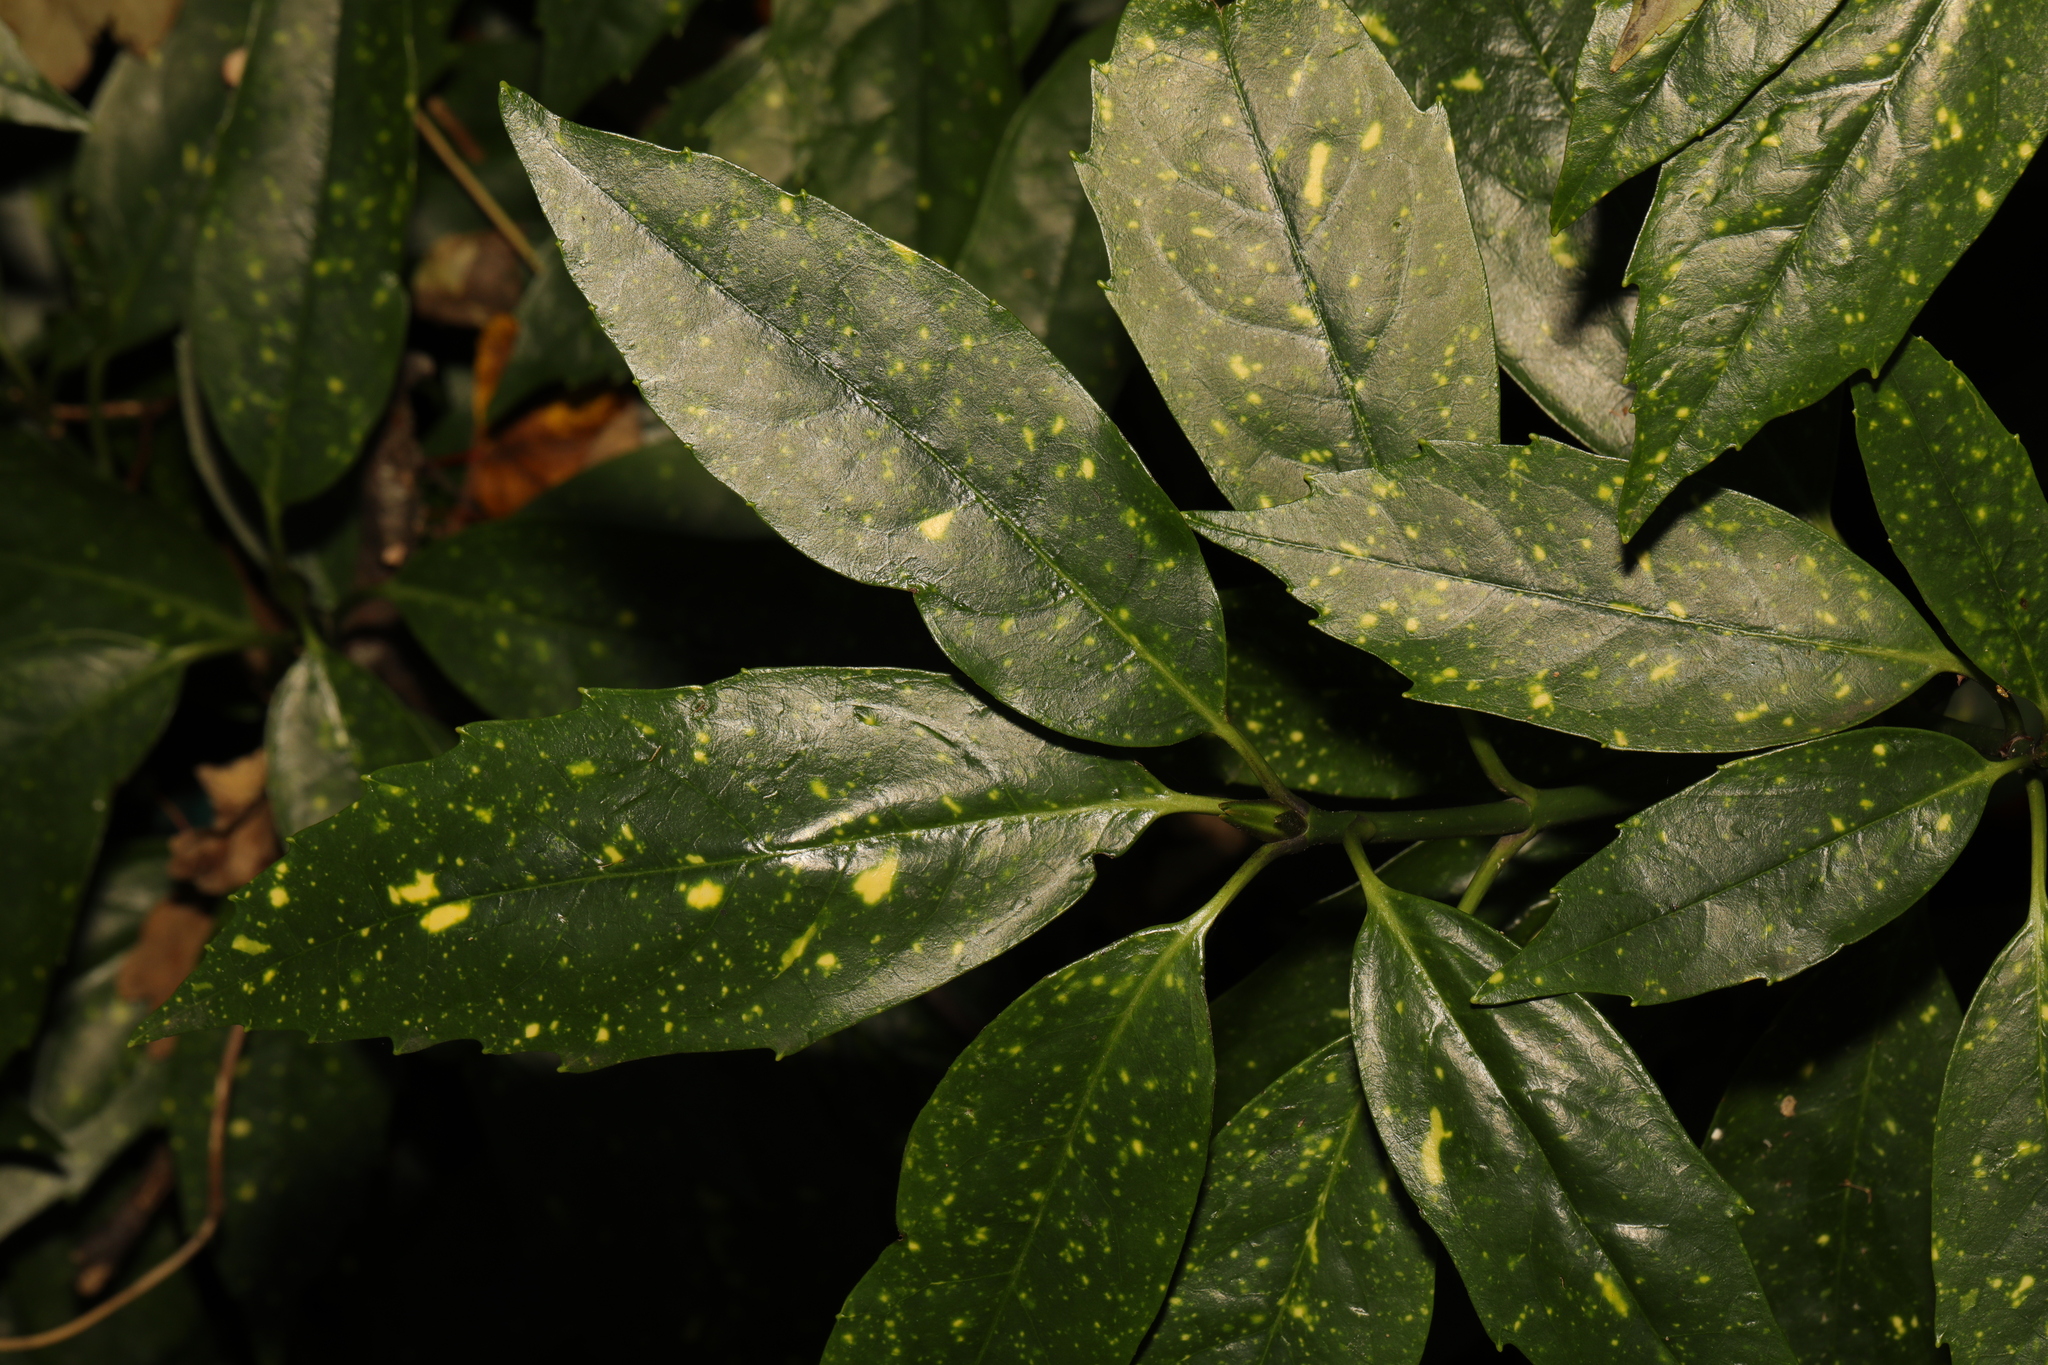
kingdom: Plantae
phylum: Tracheophyta
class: Magnoliopsida
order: Garryales
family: Garryaceae
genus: Aucuba
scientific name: Aucuba japonica
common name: Spotted-laurel
